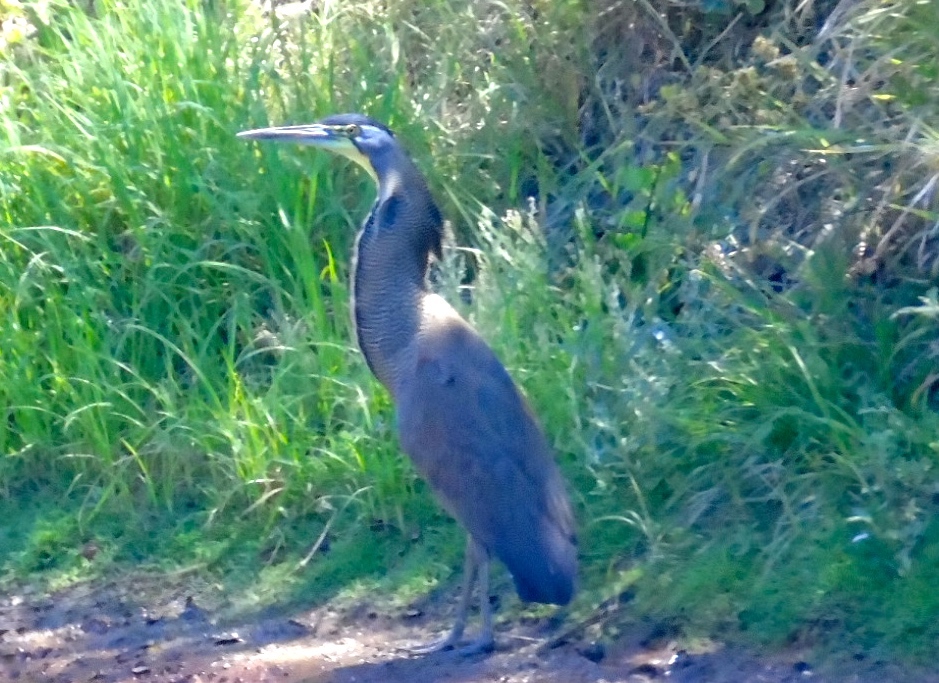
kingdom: Animalia
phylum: Chordata
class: Aves
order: Pelecaniformes
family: Ardeidae
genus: Tigrisoma
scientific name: Tigrisoma mexicanum
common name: Bare-throated tiger-heron
